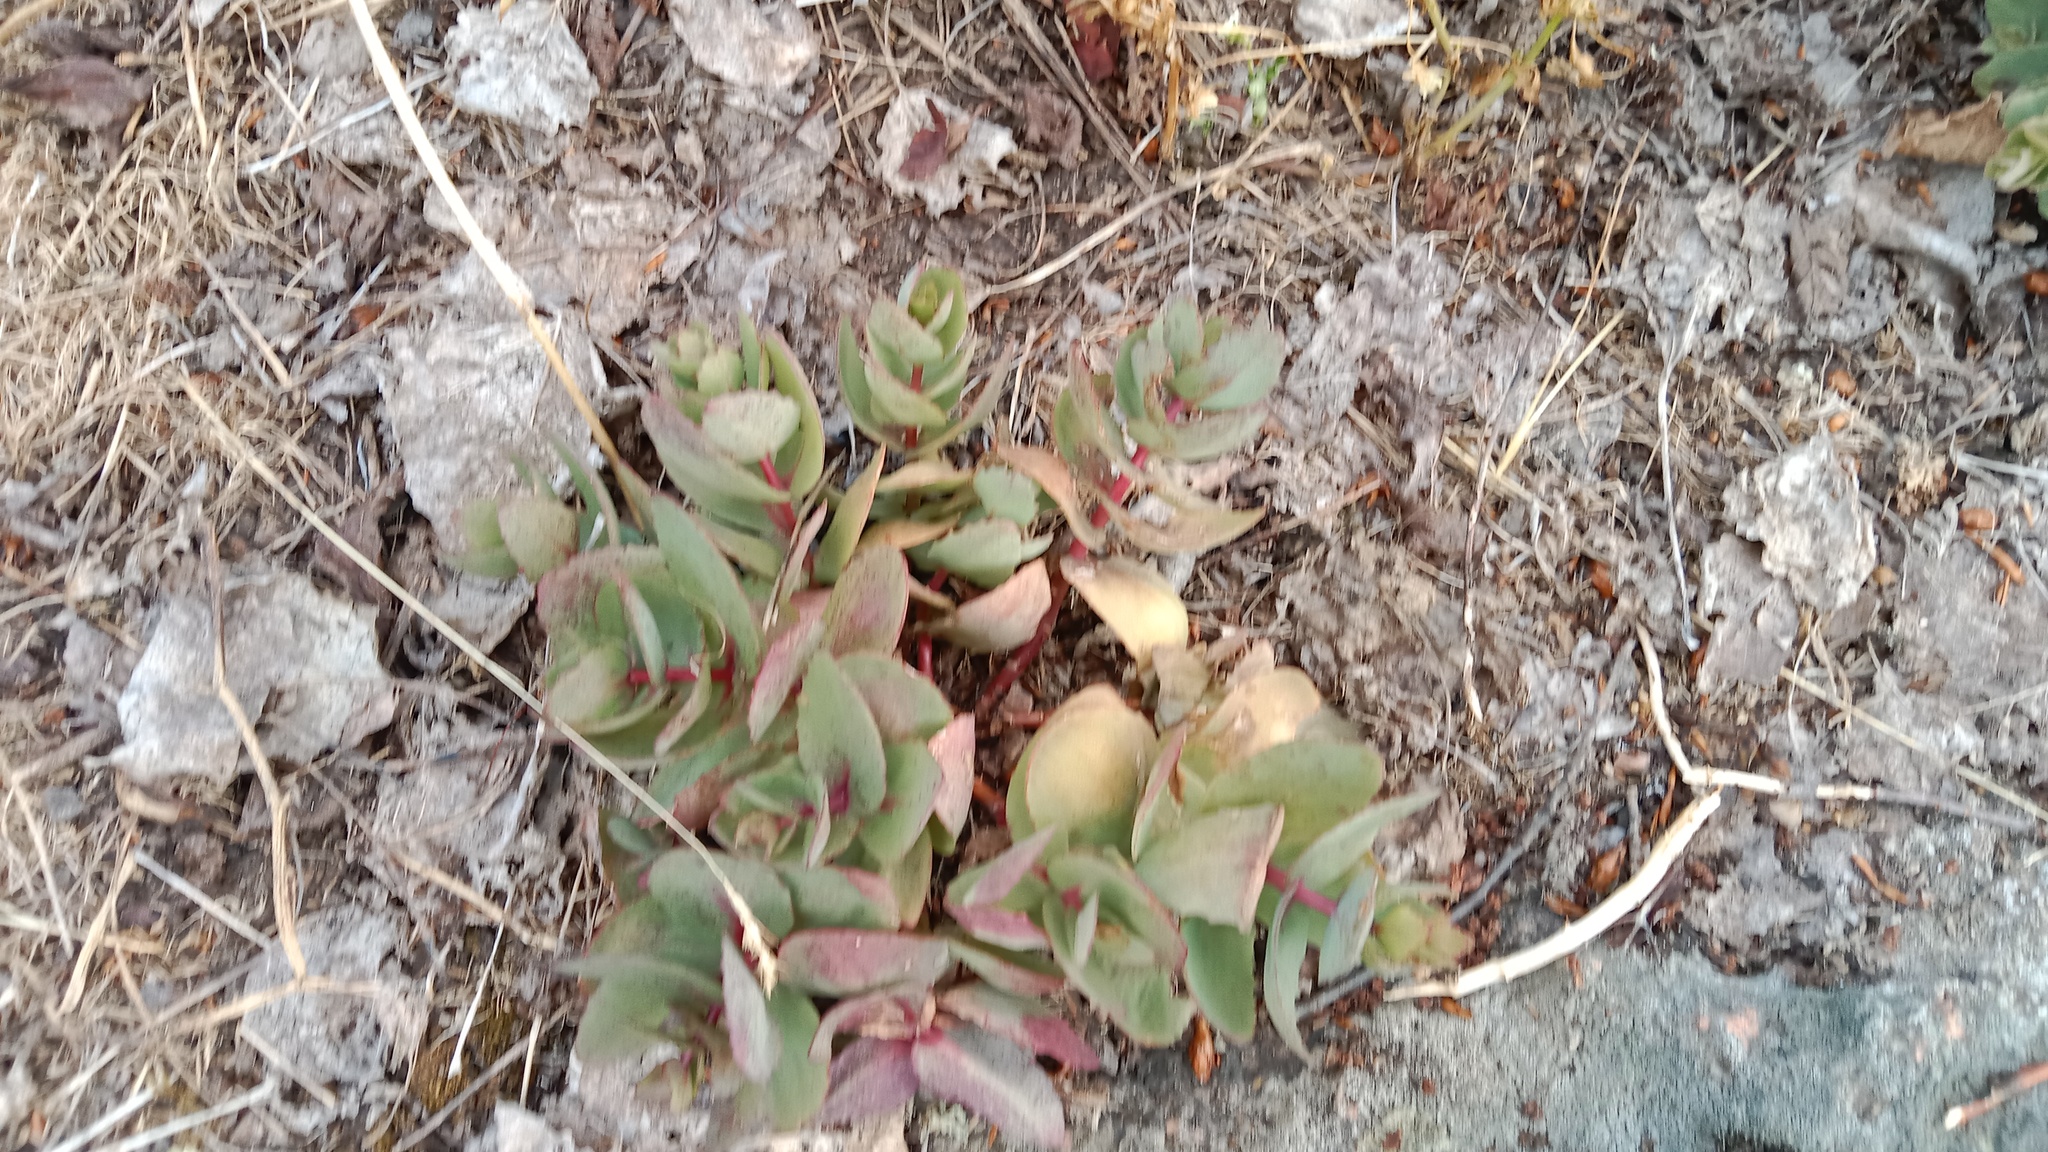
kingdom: Plantae
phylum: Tracheophyta
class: Magnoliopsida
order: Saxifragales
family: Crassulaceae
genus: Hylotelephium
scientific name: Hylotelephium maximum
